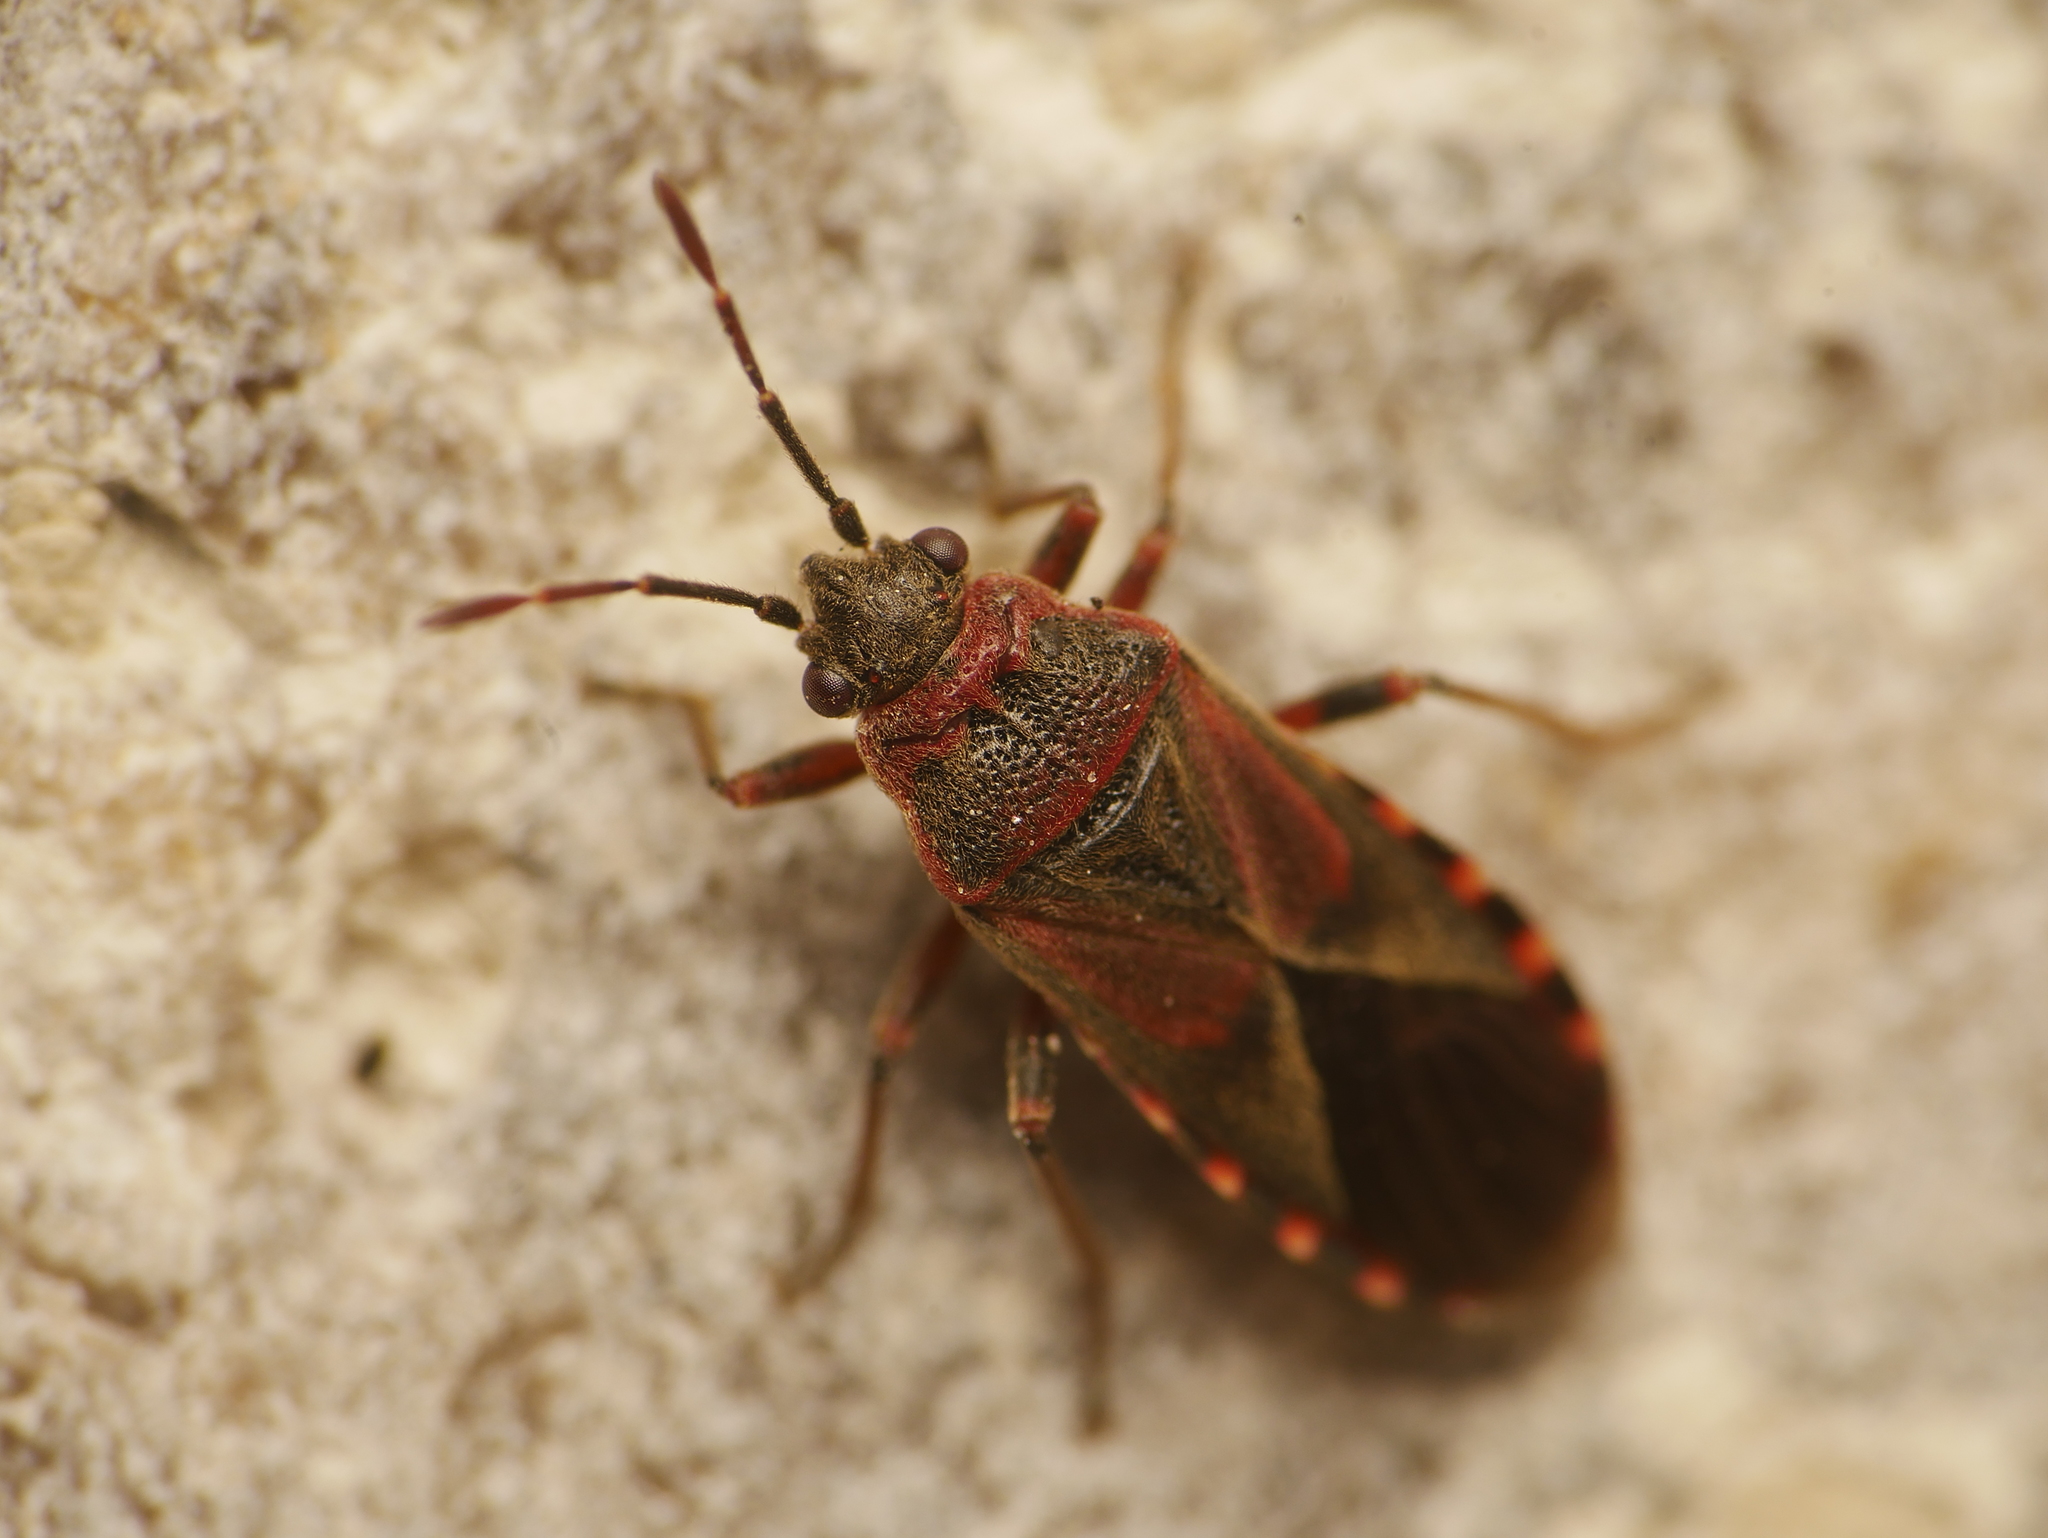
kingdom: Animalia
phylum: Arthropoda
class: Insecta
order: Hemiptera
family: Lygaeidae
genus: Arocatus
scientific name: Arocatus melanocephalus
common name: Lygaeid bug
